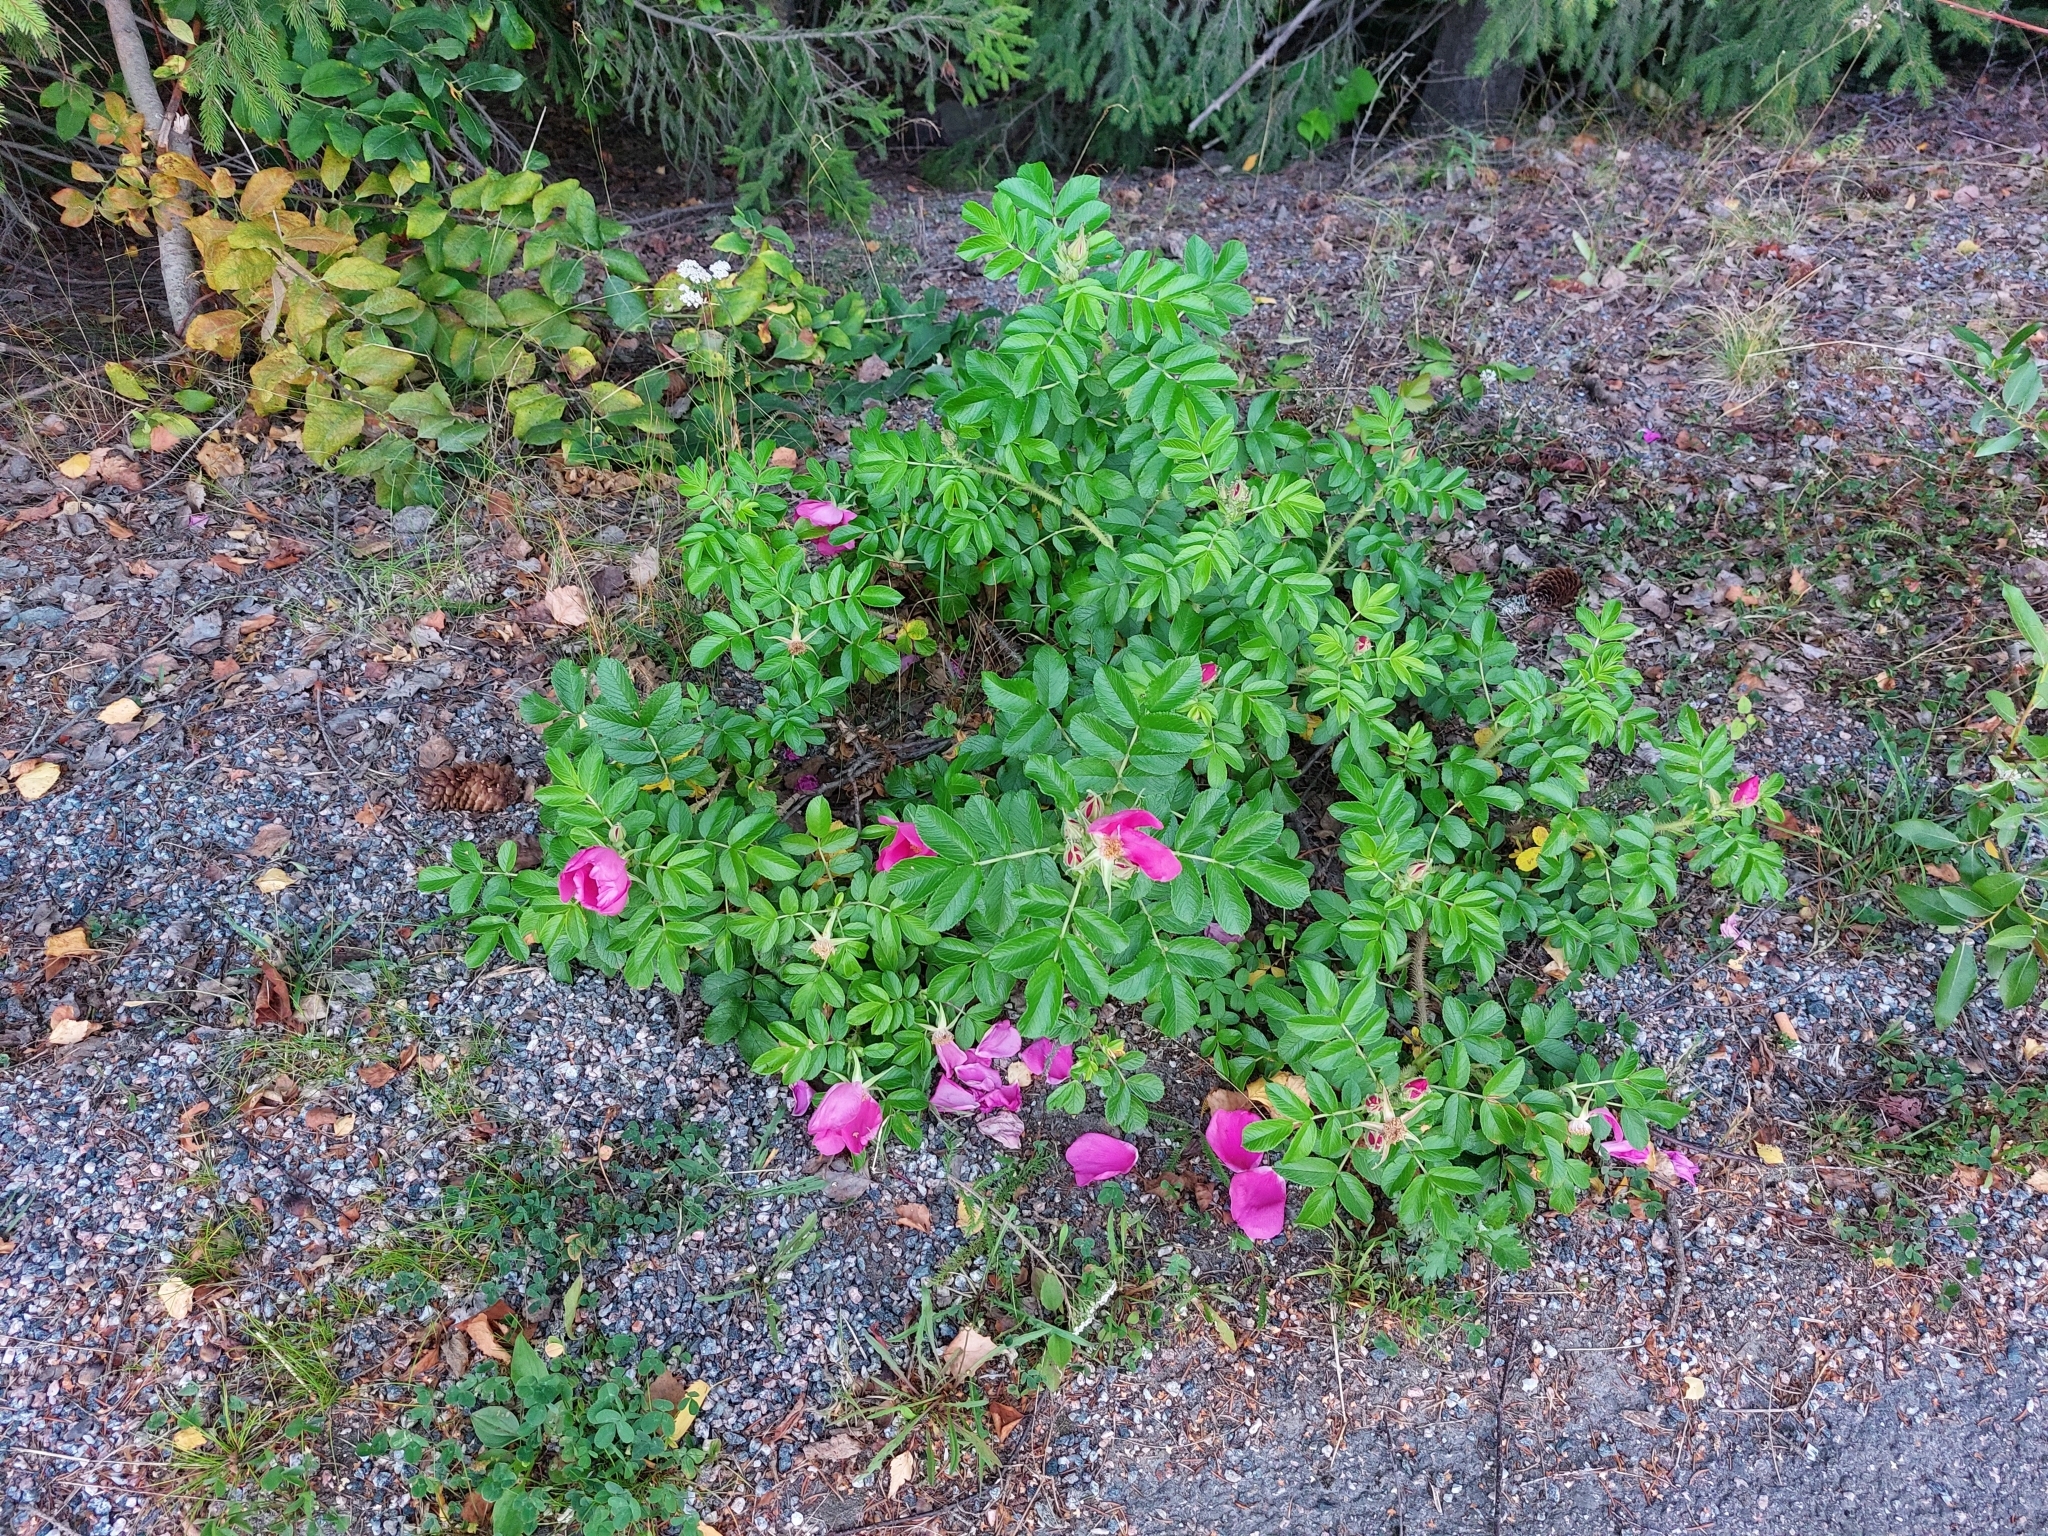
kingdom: Plantae
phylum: Tracheophyta
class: Magnoliopsida
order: Rosales
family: Rosaceae
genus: Rosa
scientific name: Rosa rugosa
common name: Japanese rose
